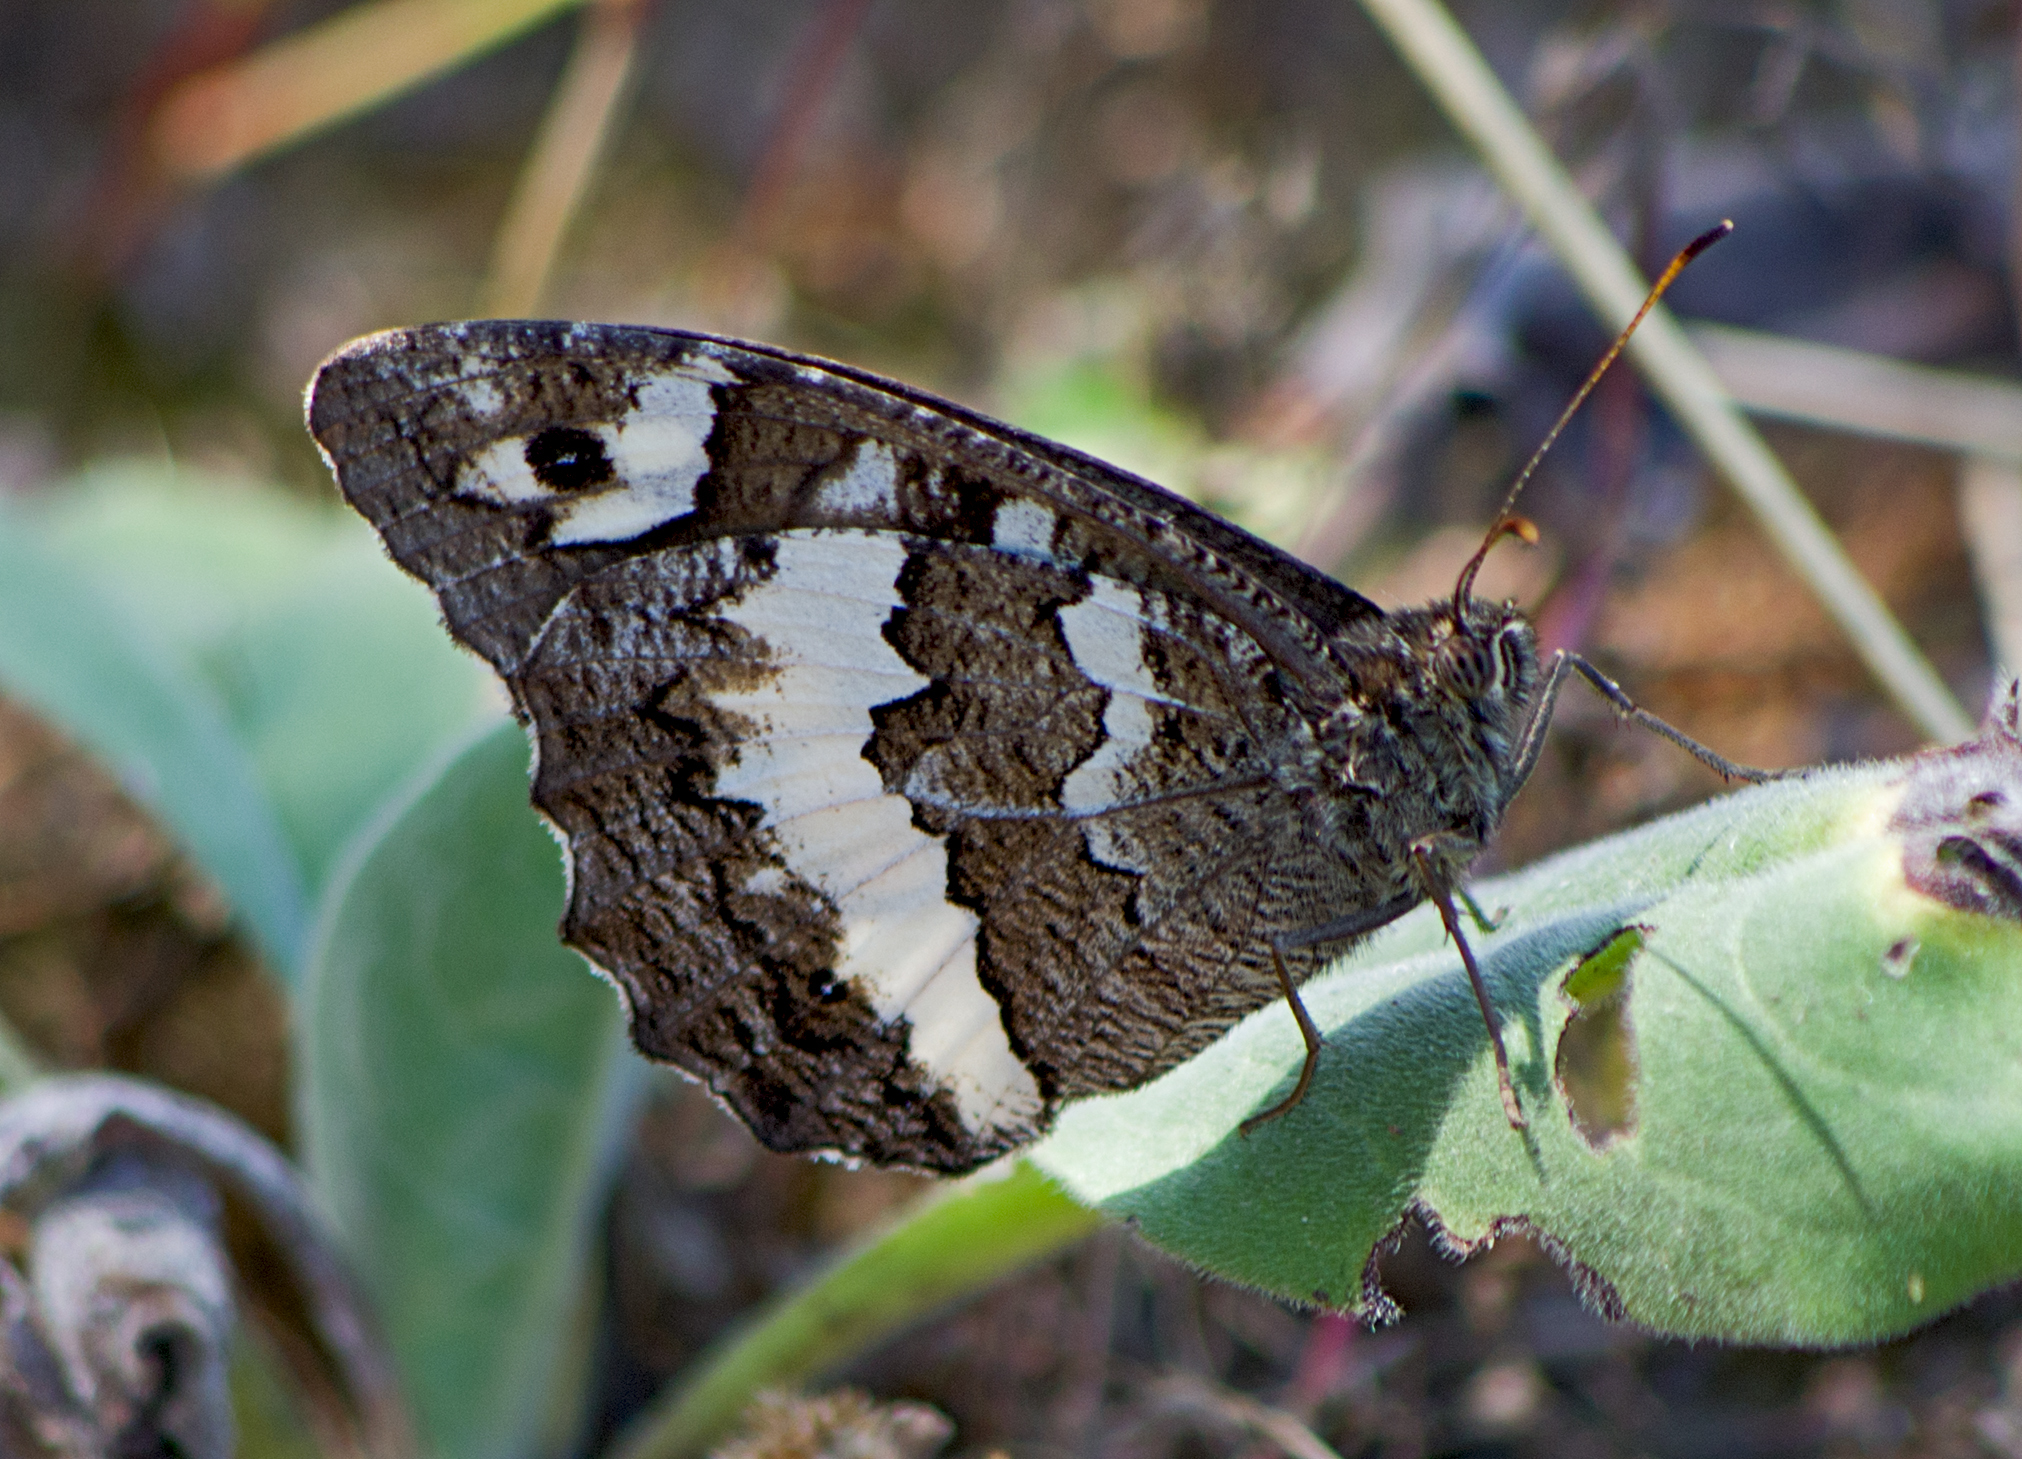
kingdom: Animalia
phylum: Arthropoda
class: Insecta
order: Lepidoptera
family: Lycaenidae
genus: Loweia
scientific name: Loweia tityrus
